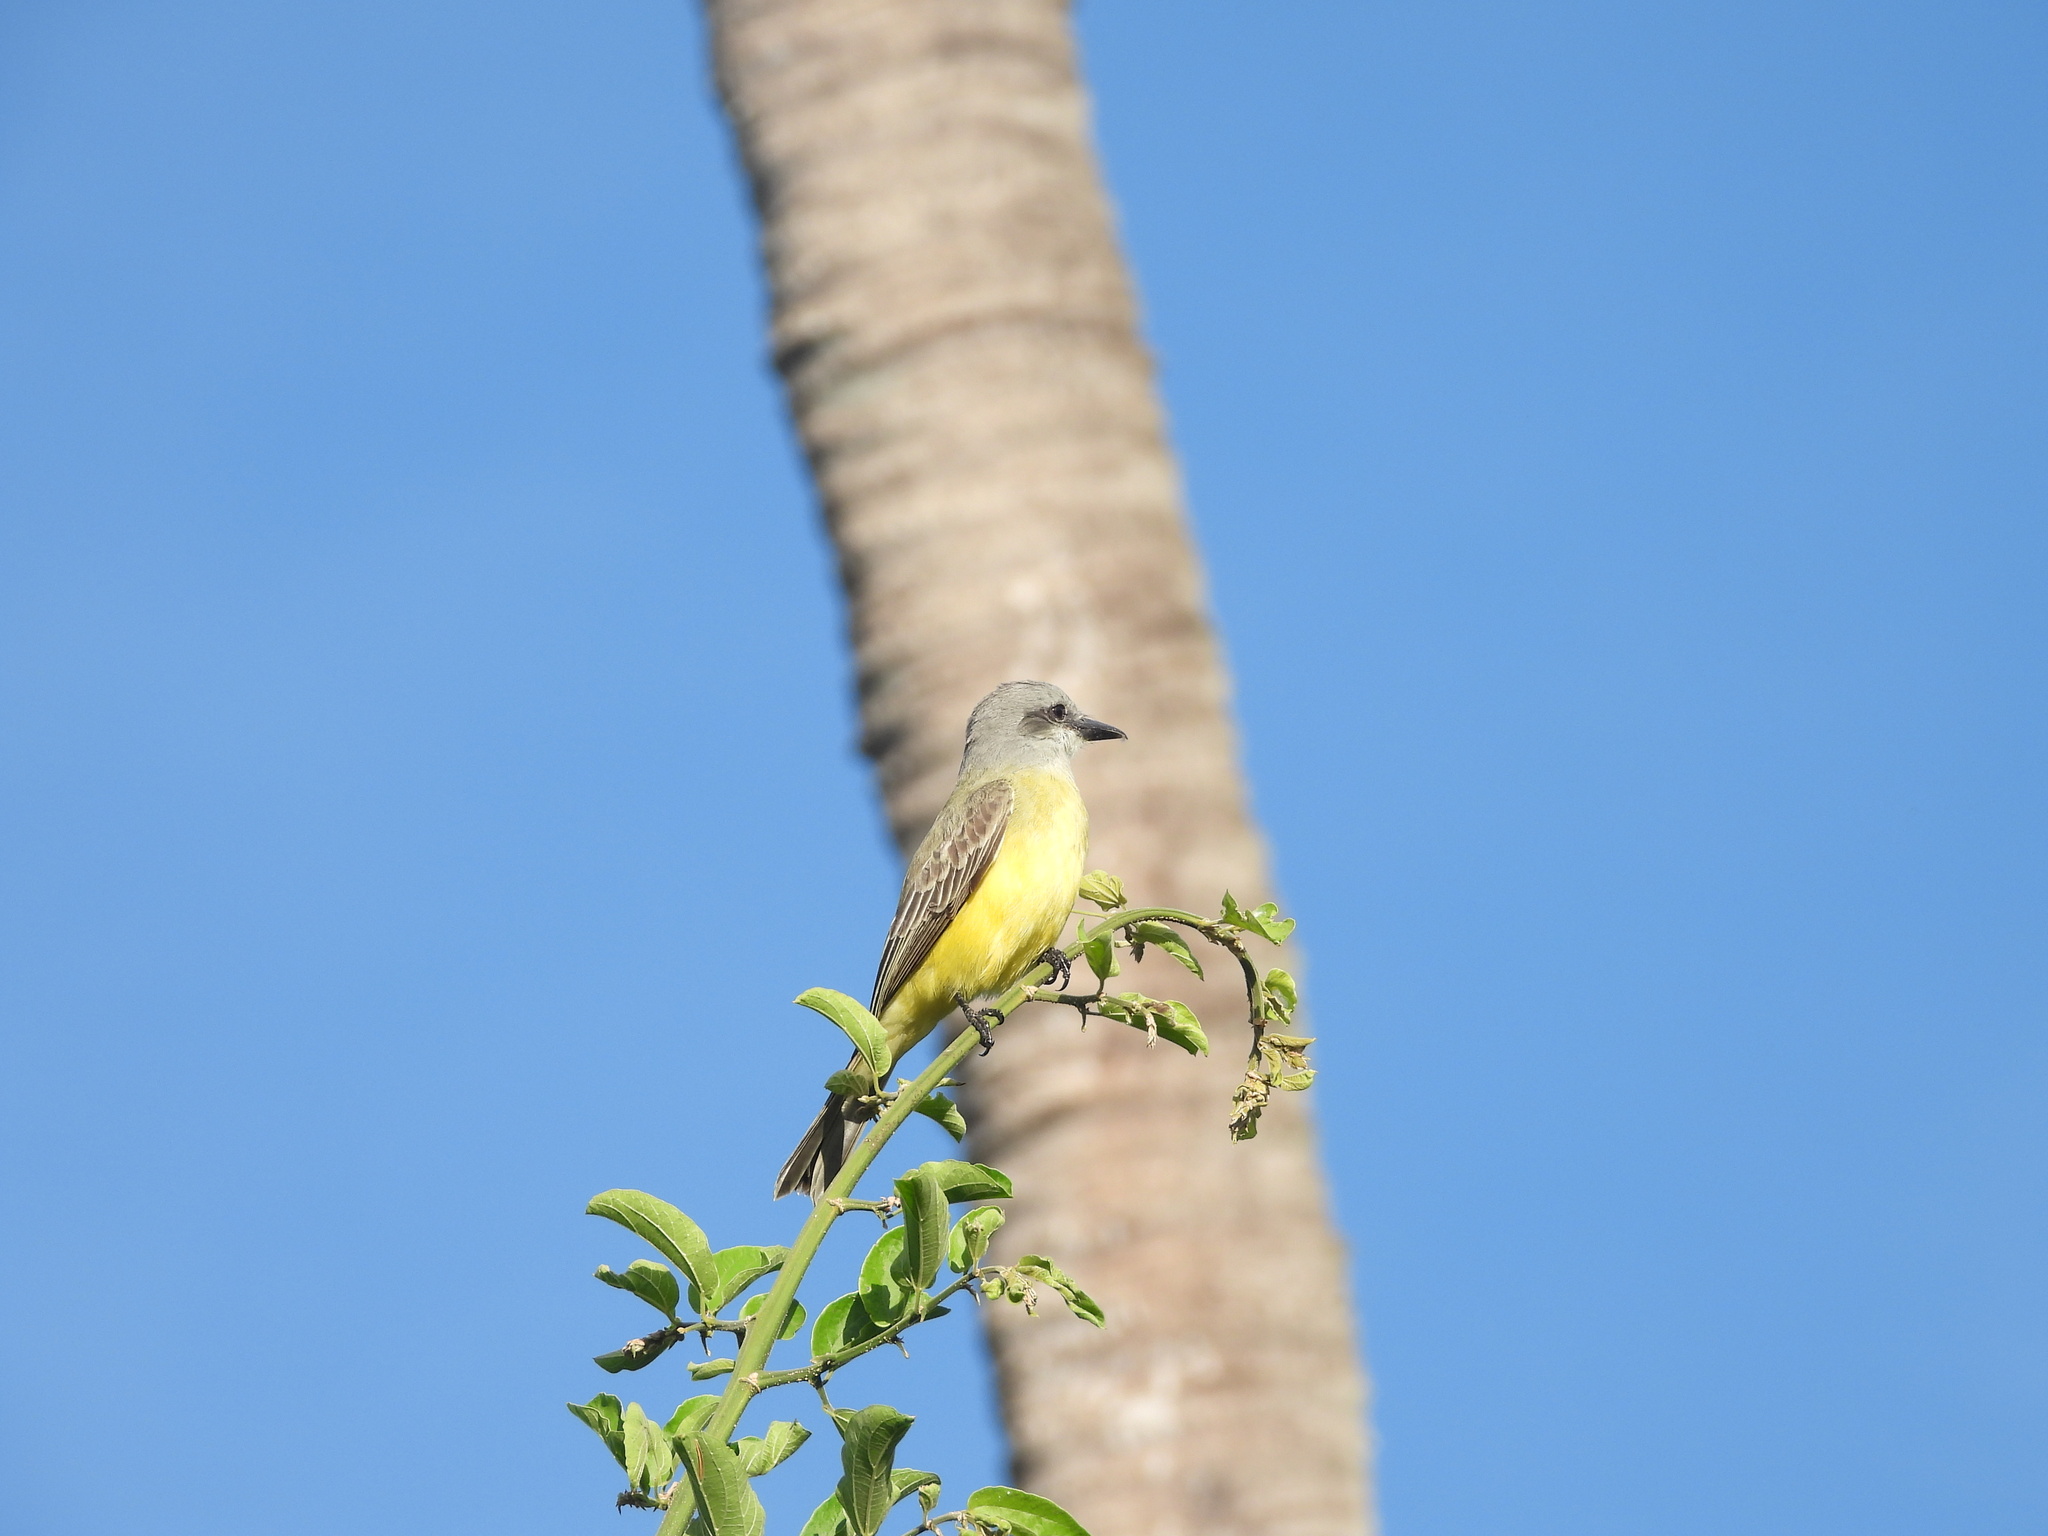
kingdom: Animalia
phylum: Chordata
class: Aves
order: Passeriformes
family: Tyrannidae
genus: Tyrannus
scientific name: Tyrannus melancholicus
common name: Tropical kingbird
